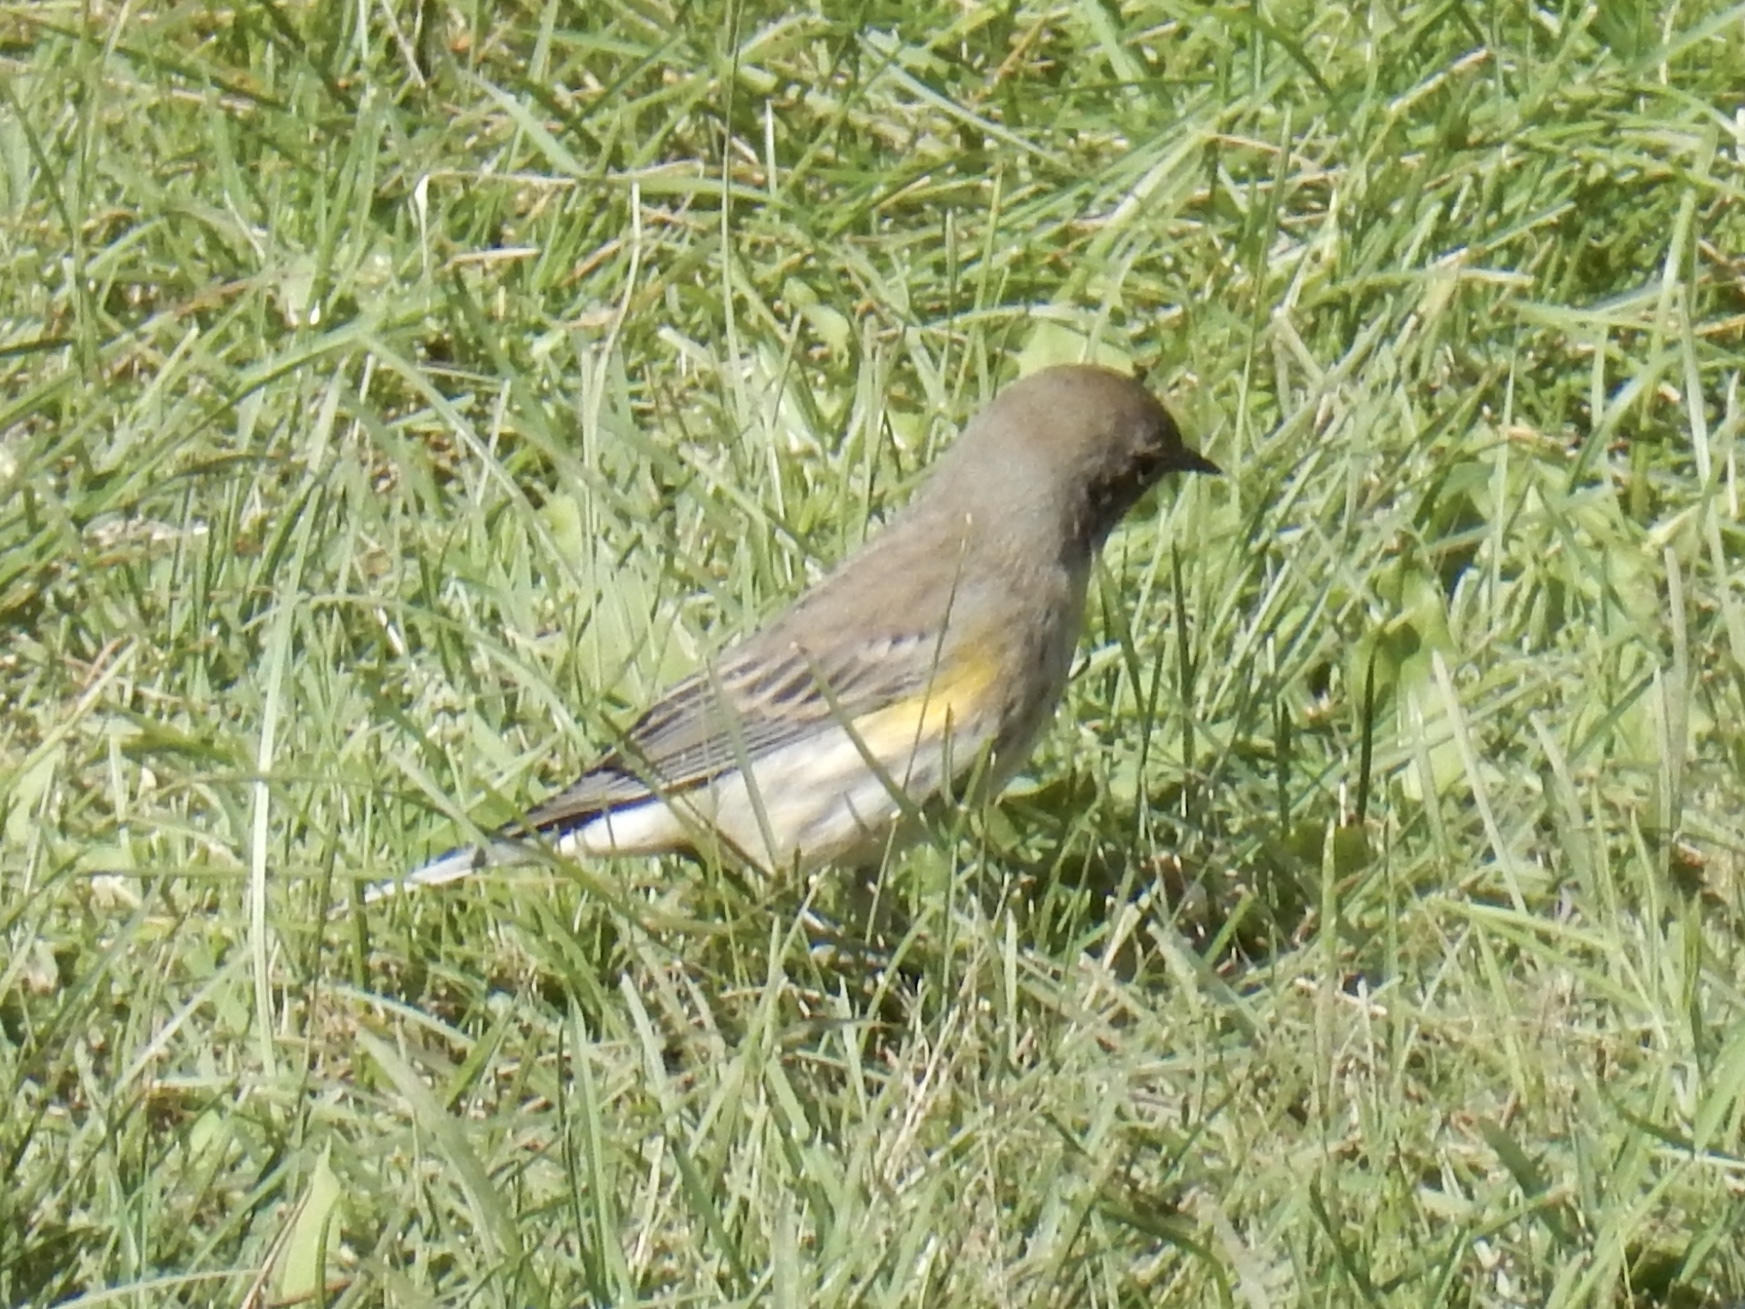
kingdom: Animalia
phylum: Chordata
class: Aves
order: Passeriformes
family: Parulidae
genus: Setophaga
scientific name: Setophaga coronata
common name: Myrtle warbler
